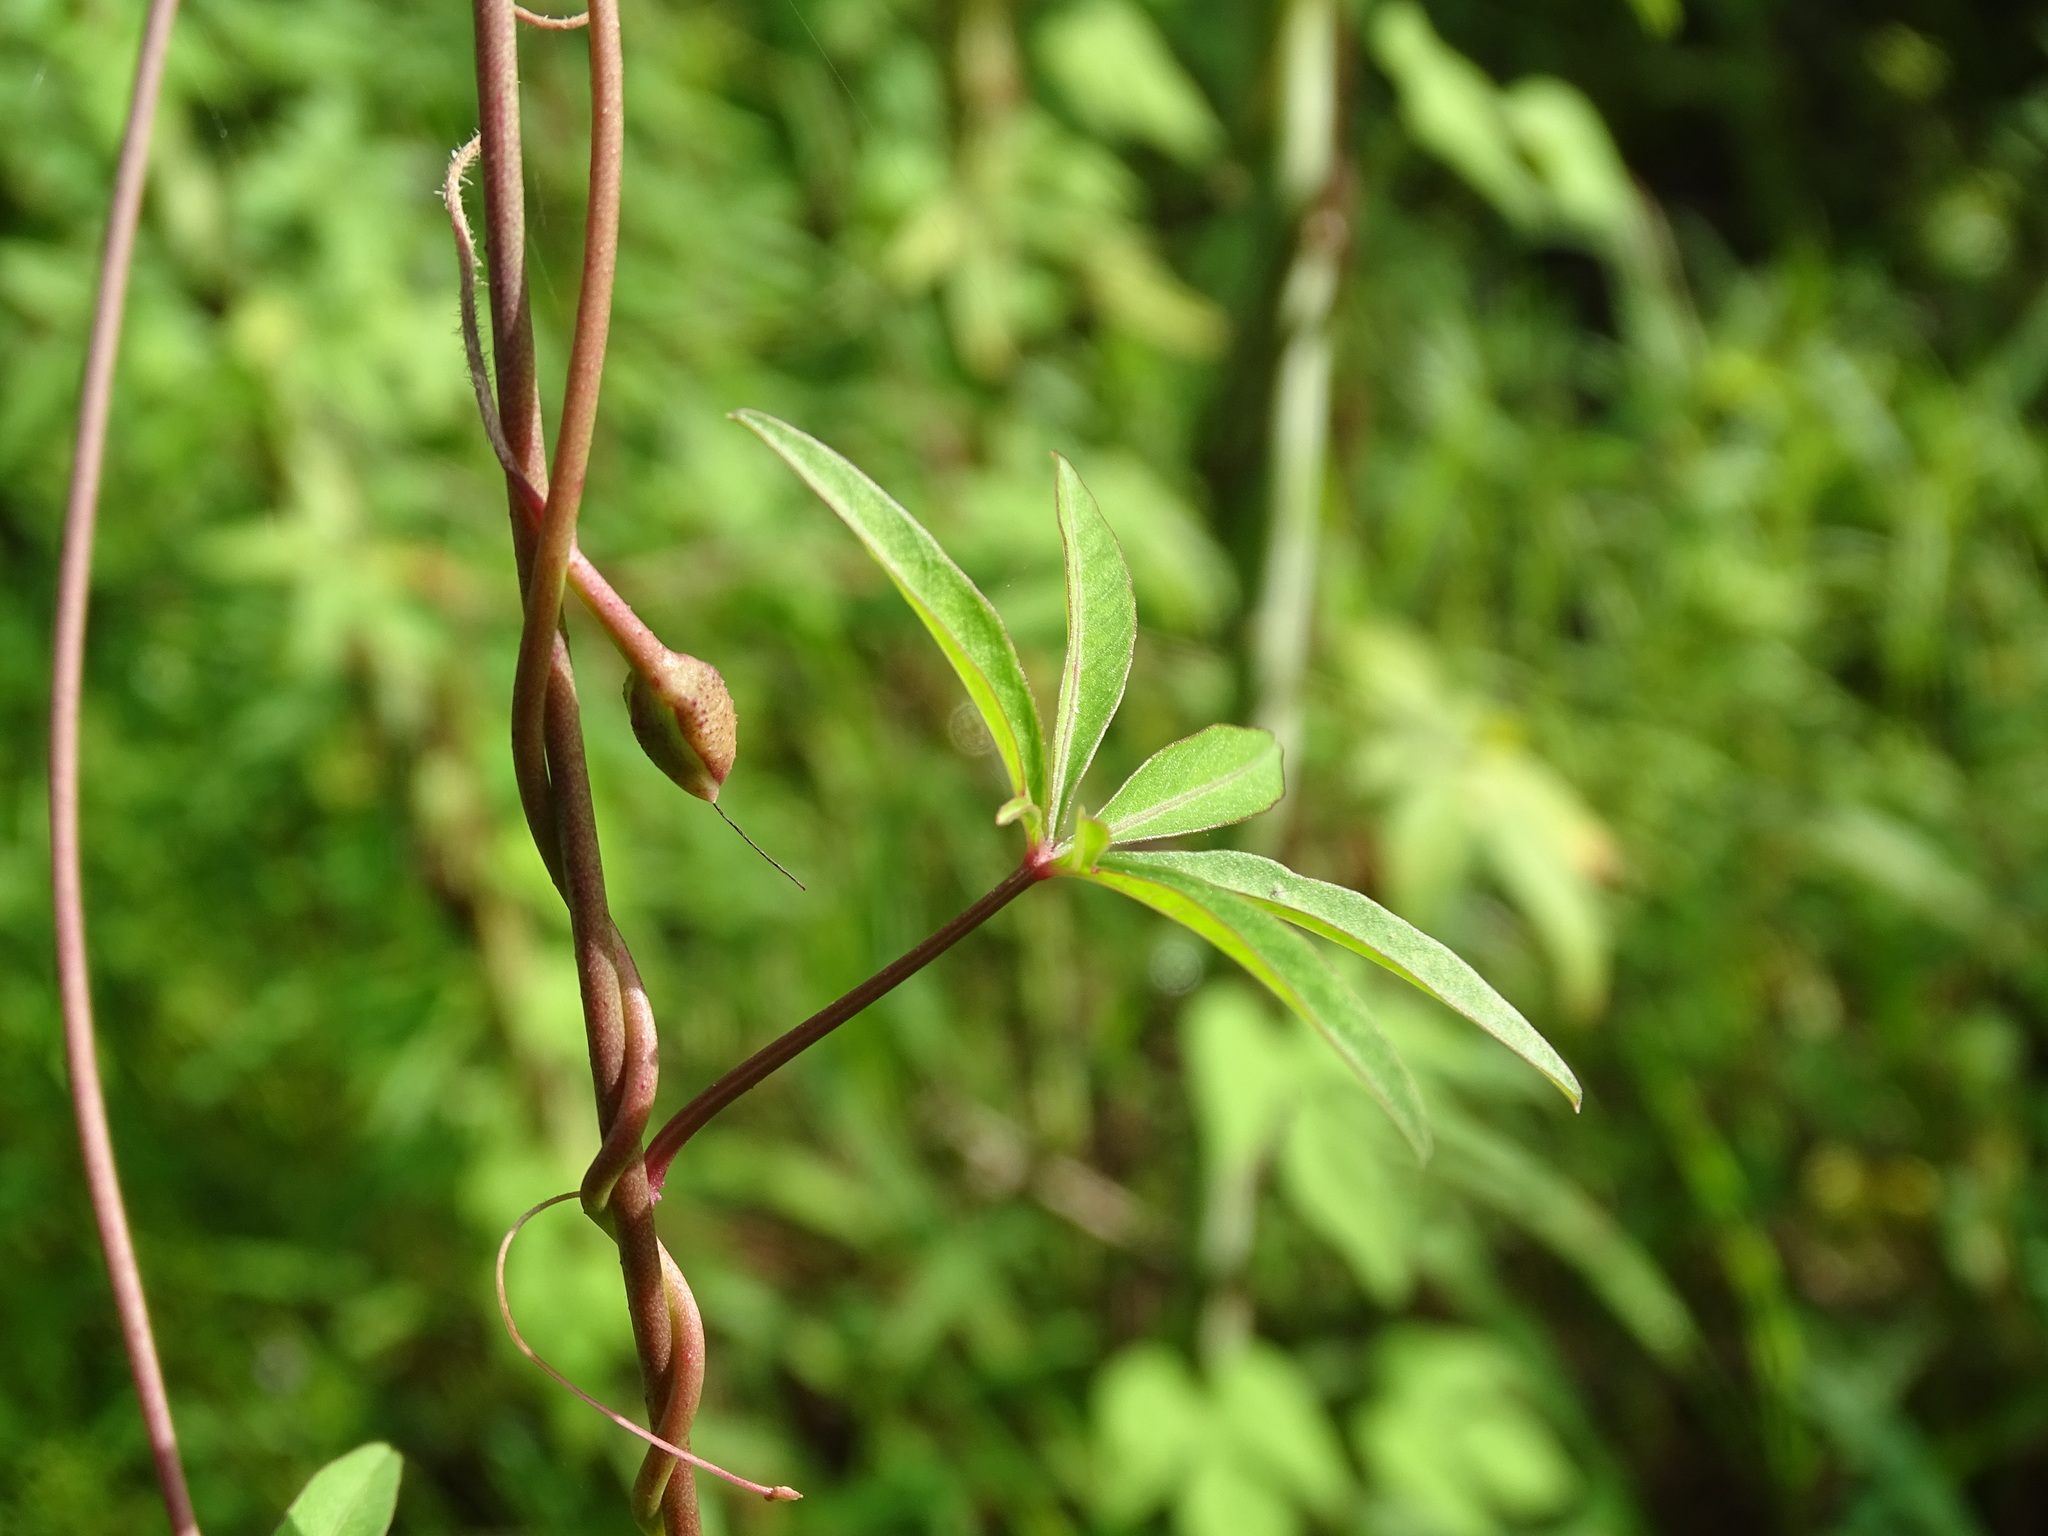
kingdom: Plantae
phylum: Tracheophyta
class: Magnoliopsida
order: Solanales
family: Convolvulaceae
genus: Ipomoea
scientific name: Ipomoea sororia
